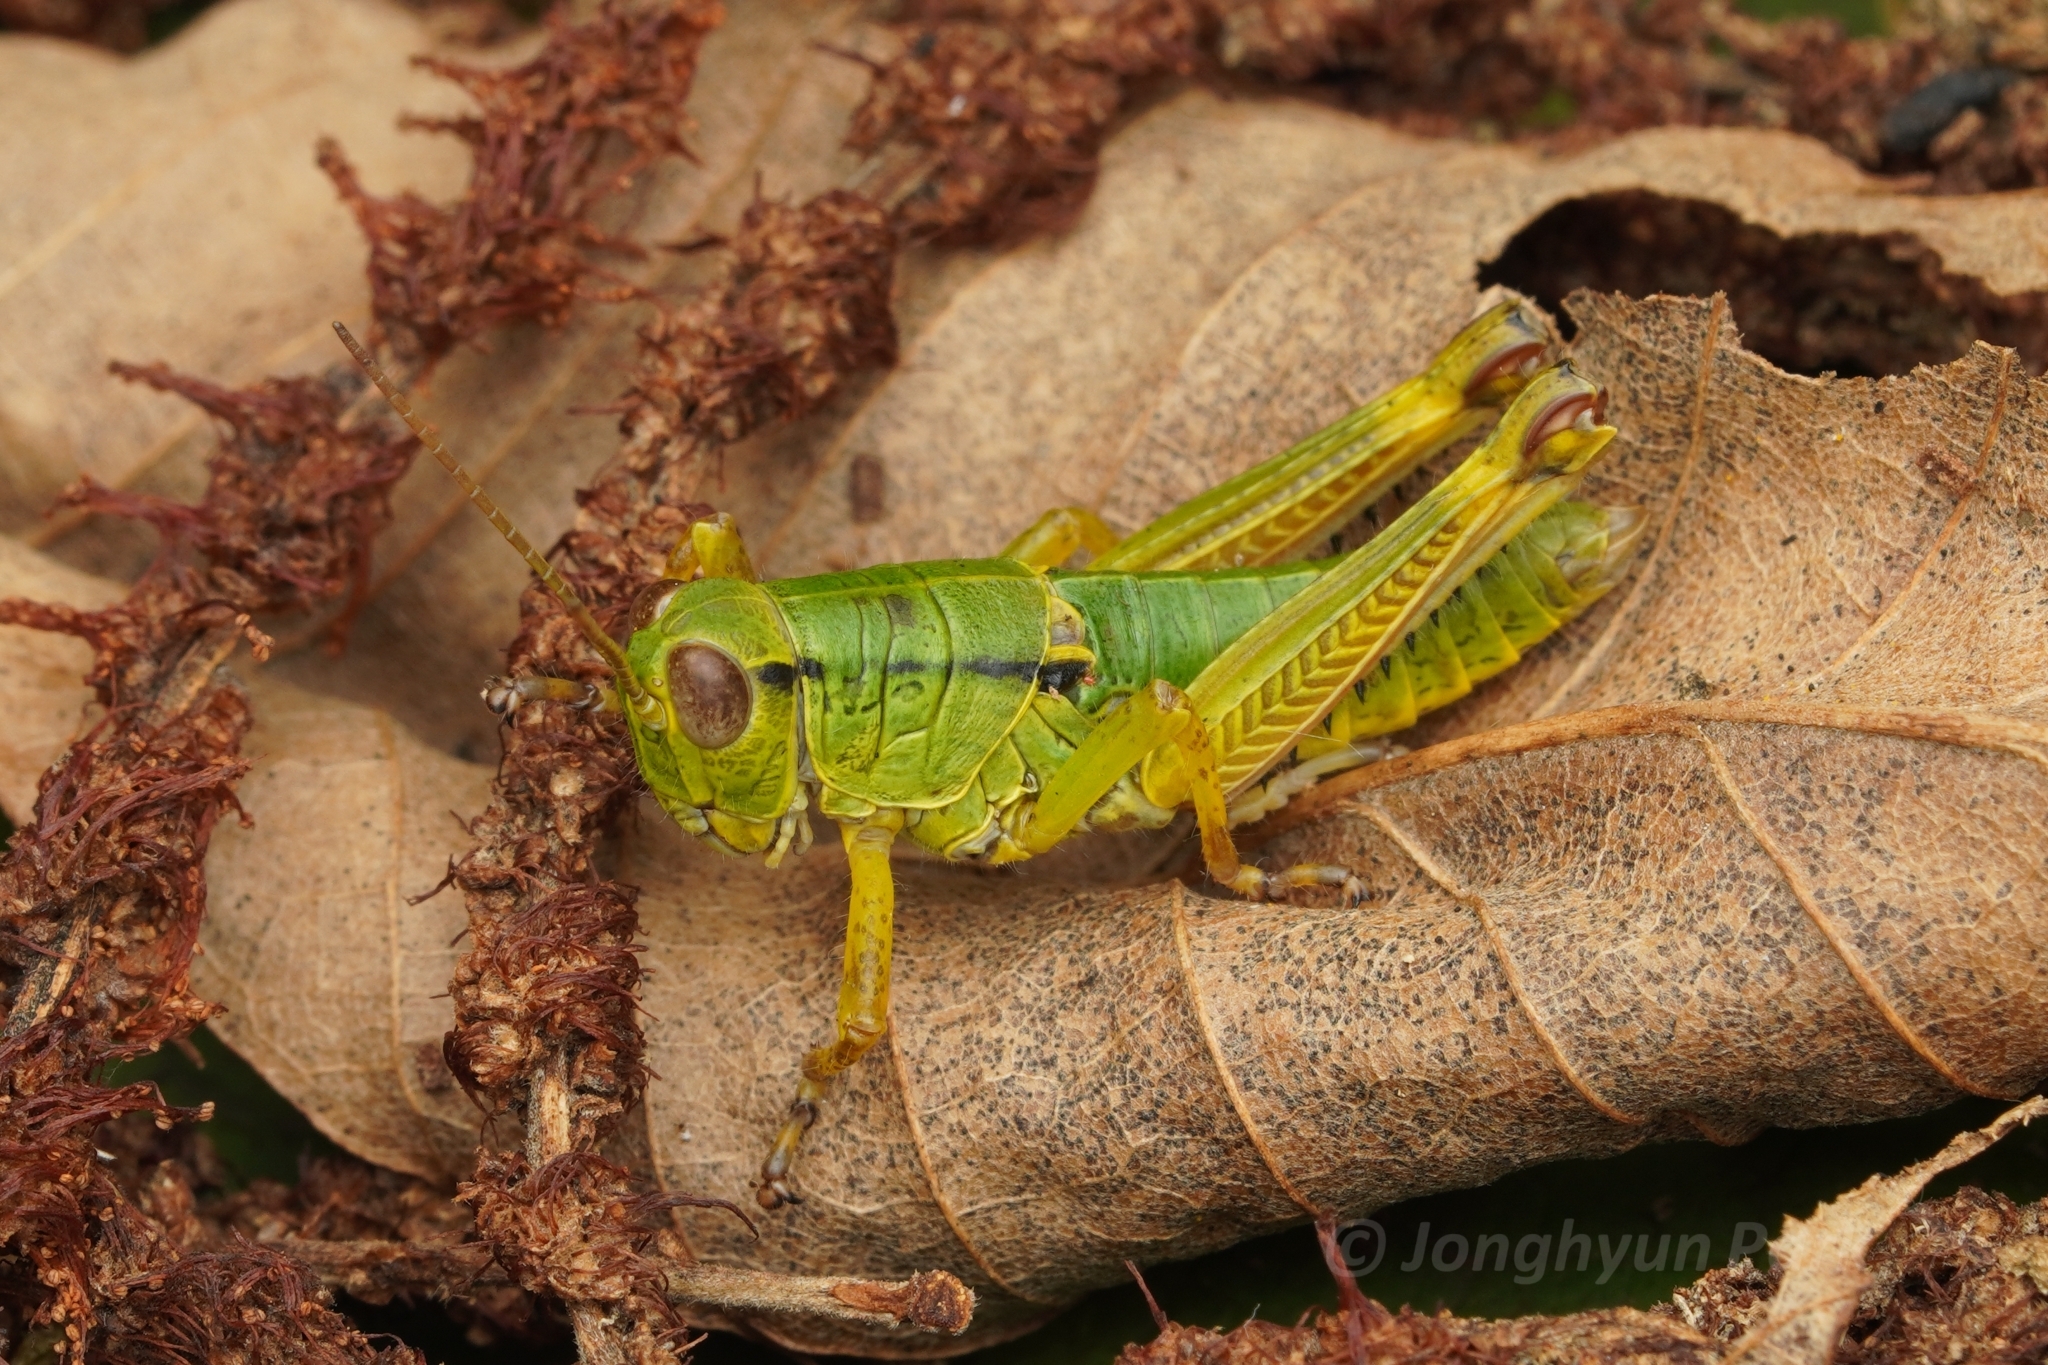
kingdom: Animalia
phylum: Arthropoda
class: Insecta
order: Orthoptera
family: Acrididae
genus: Parapodisma
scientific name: Parapodisma mikado
